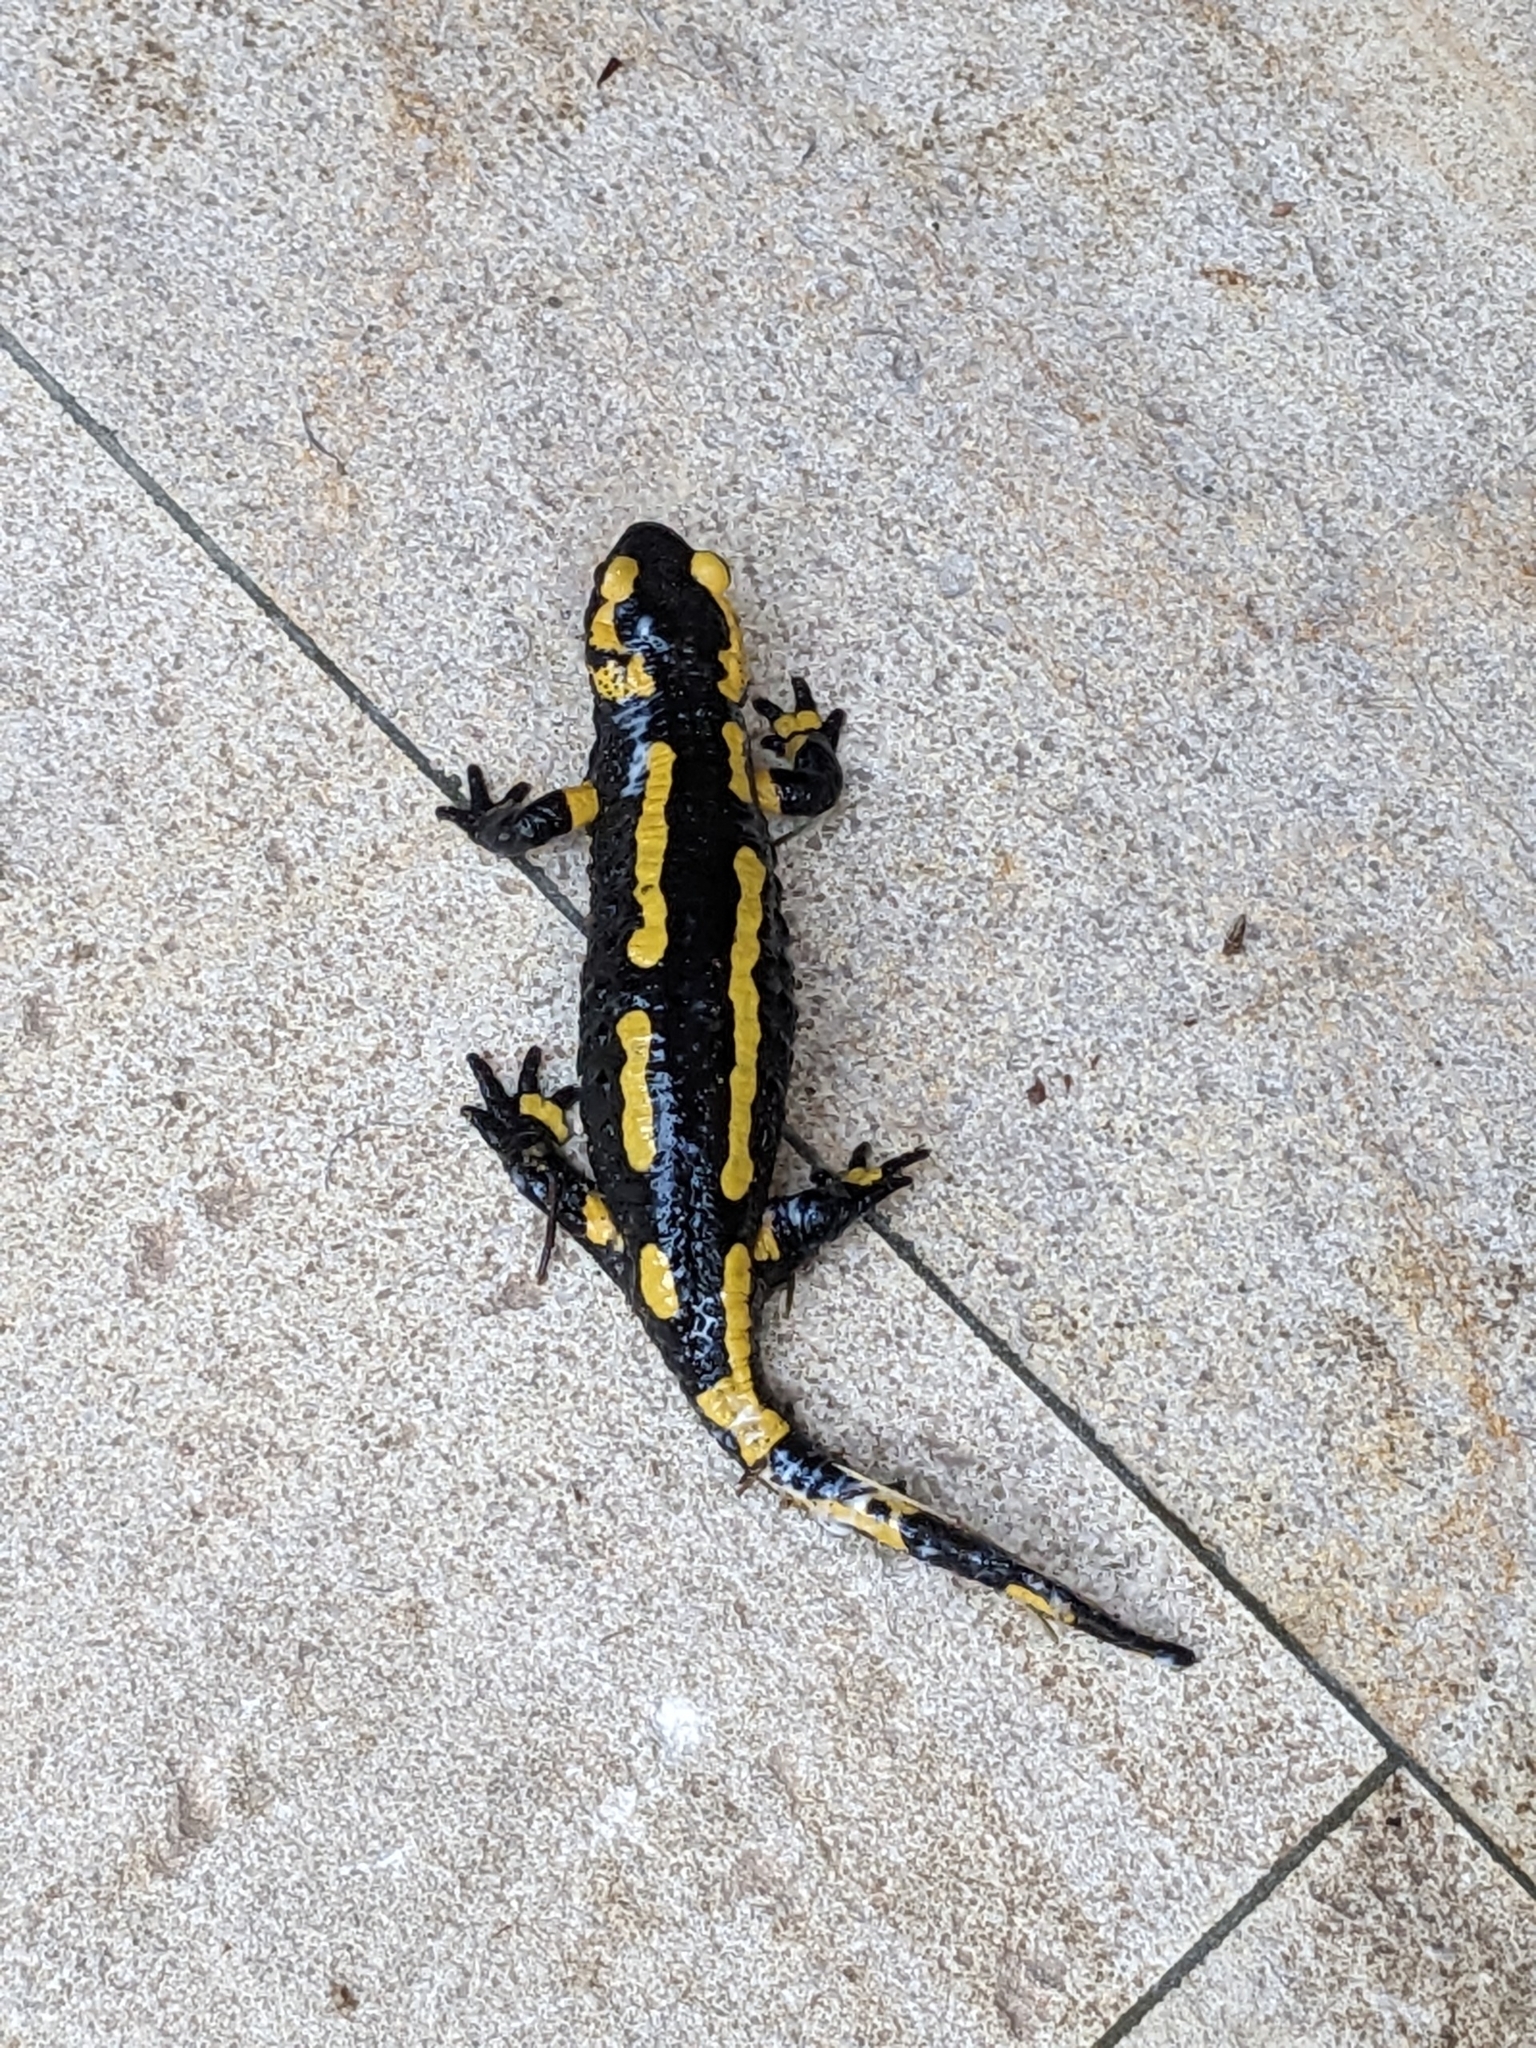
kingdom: Animalia
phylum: Chordata
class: Amphibia
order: Caudata
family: Salamandridae
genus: Salamandra
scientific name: Salamandra salamandra
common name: Fire salamander
